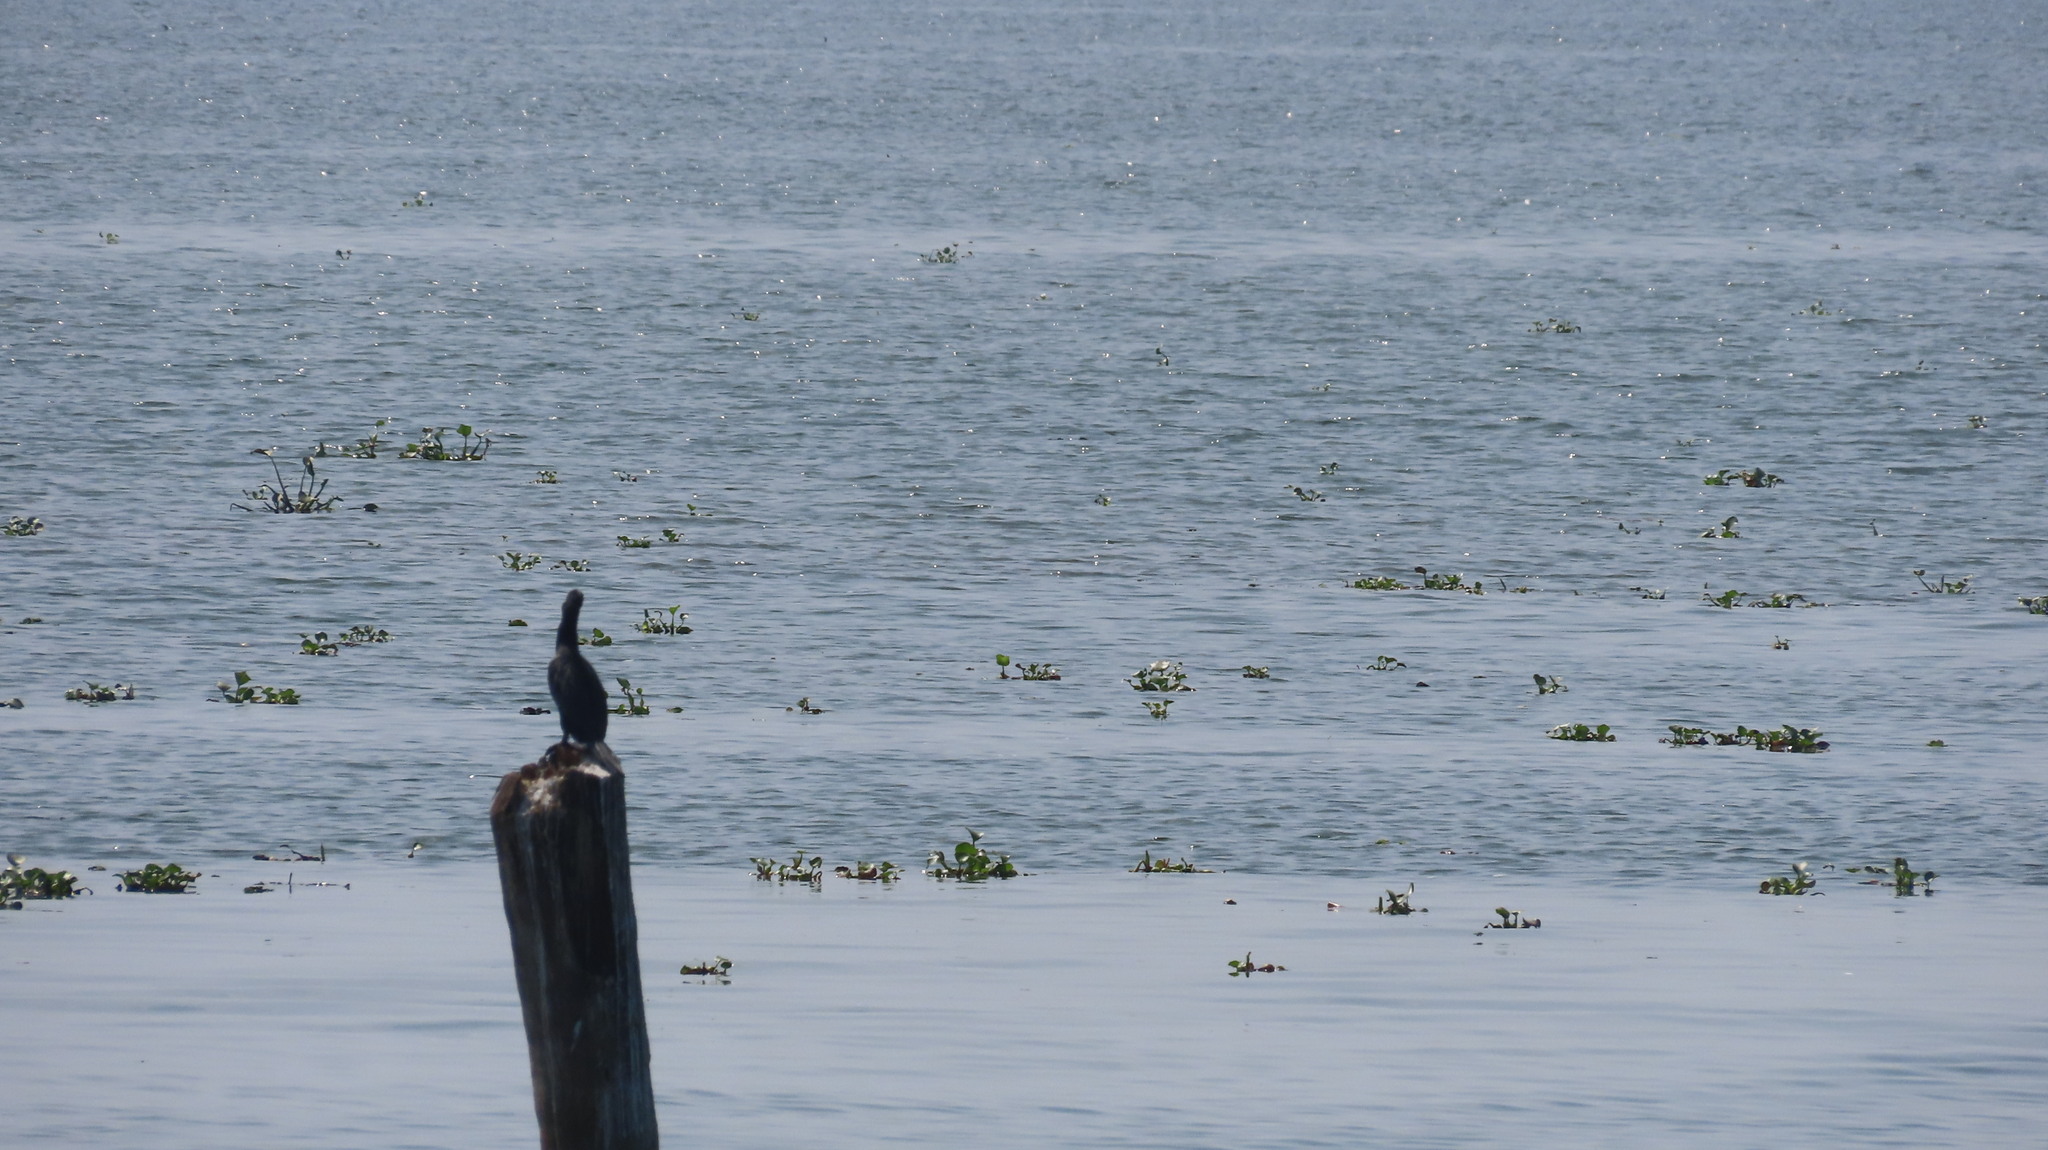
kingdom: Animalia
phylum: Chordata
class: Aves
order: Suliformes
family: Phalacrocoracidae
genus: Microcarbo
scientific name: Microcarbo niger
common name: Little cormorant
